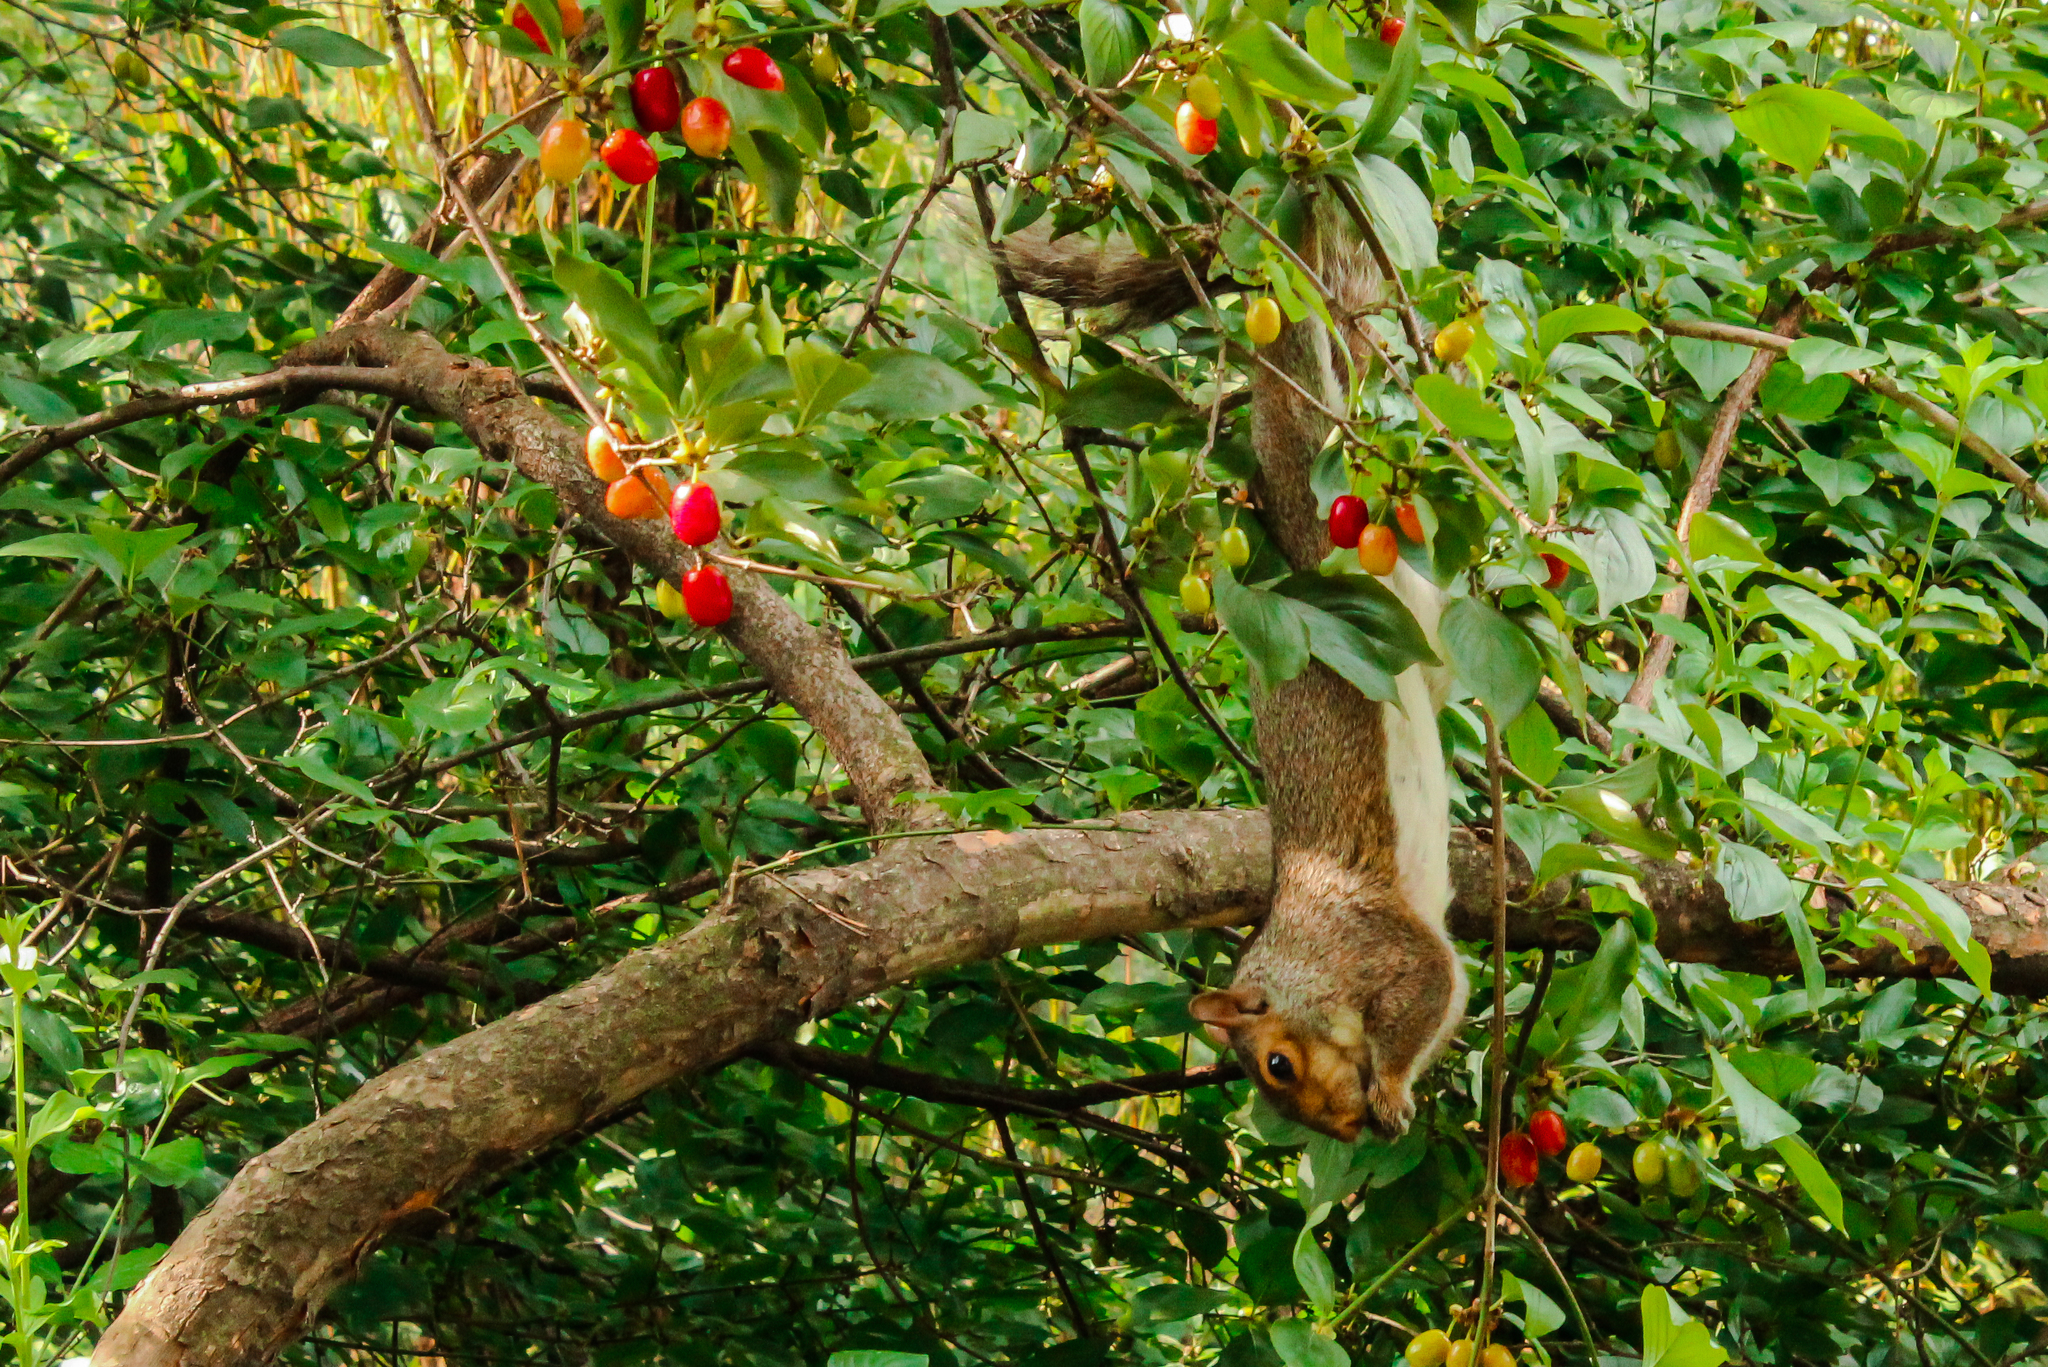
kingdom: Animalia
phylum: Chordata
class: Mammalia
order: Rodentia
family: Sciuridae
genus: Sciurus
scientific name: Sciurus carolinensis
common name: Eastern gray squirrel
